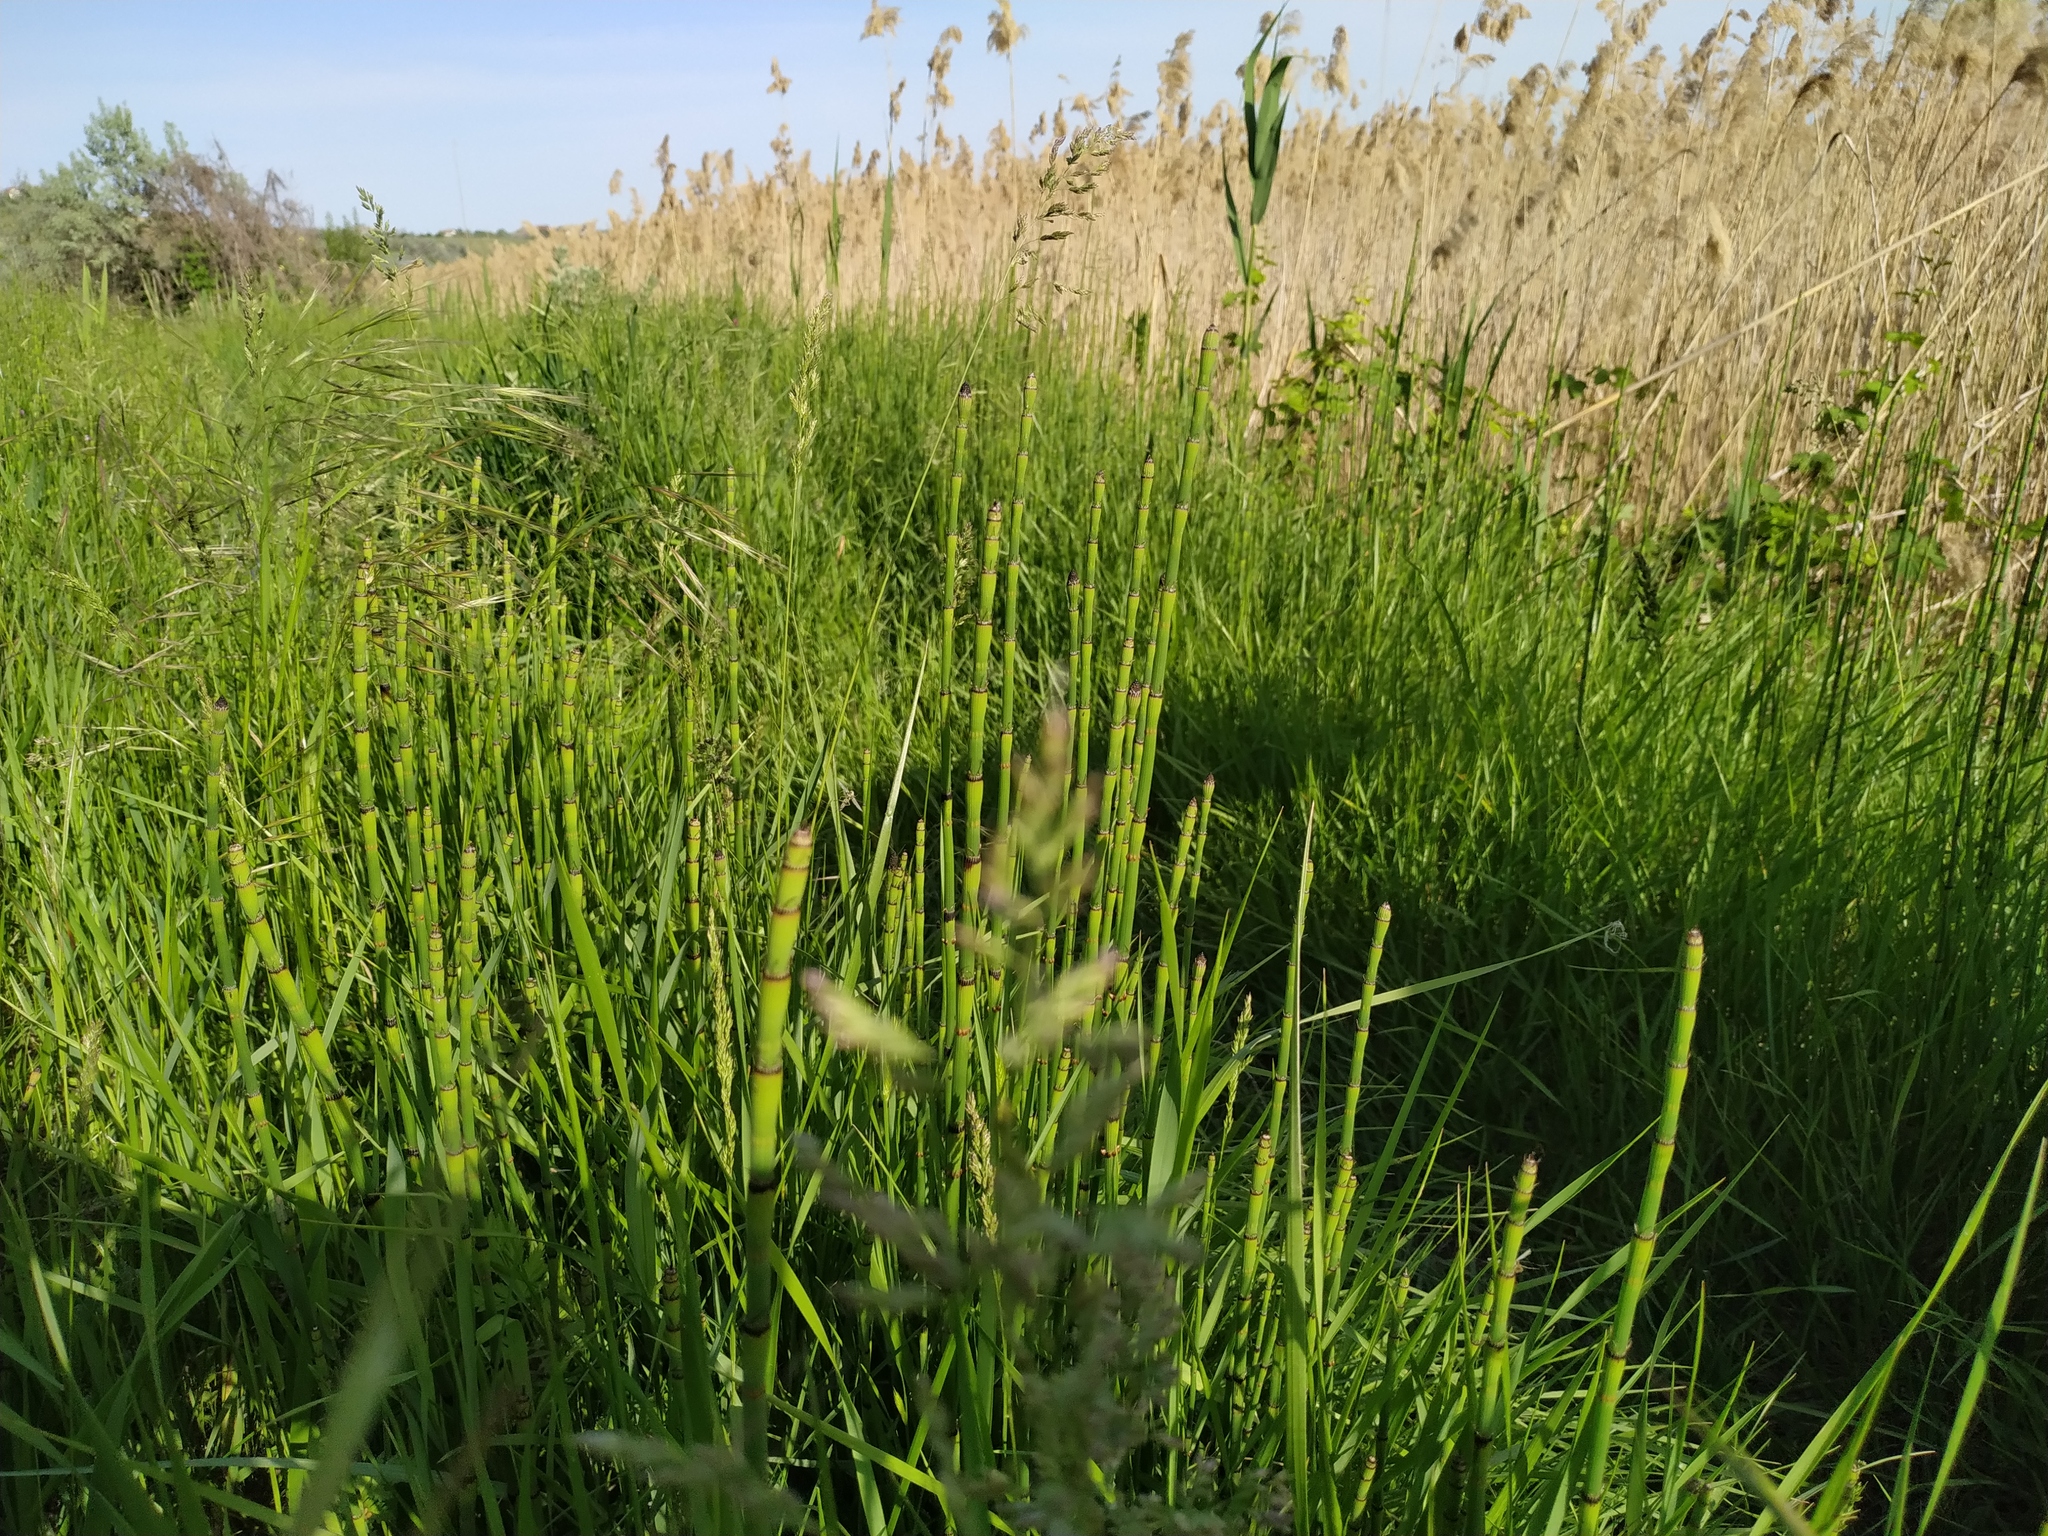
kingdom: Plantae
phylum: Tracheophyta
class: Polypodiopsida
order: Equisetales
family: Equisetaceae
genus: Equisetum
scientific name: Equisetum ramosissimum
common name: Branched horsetail
